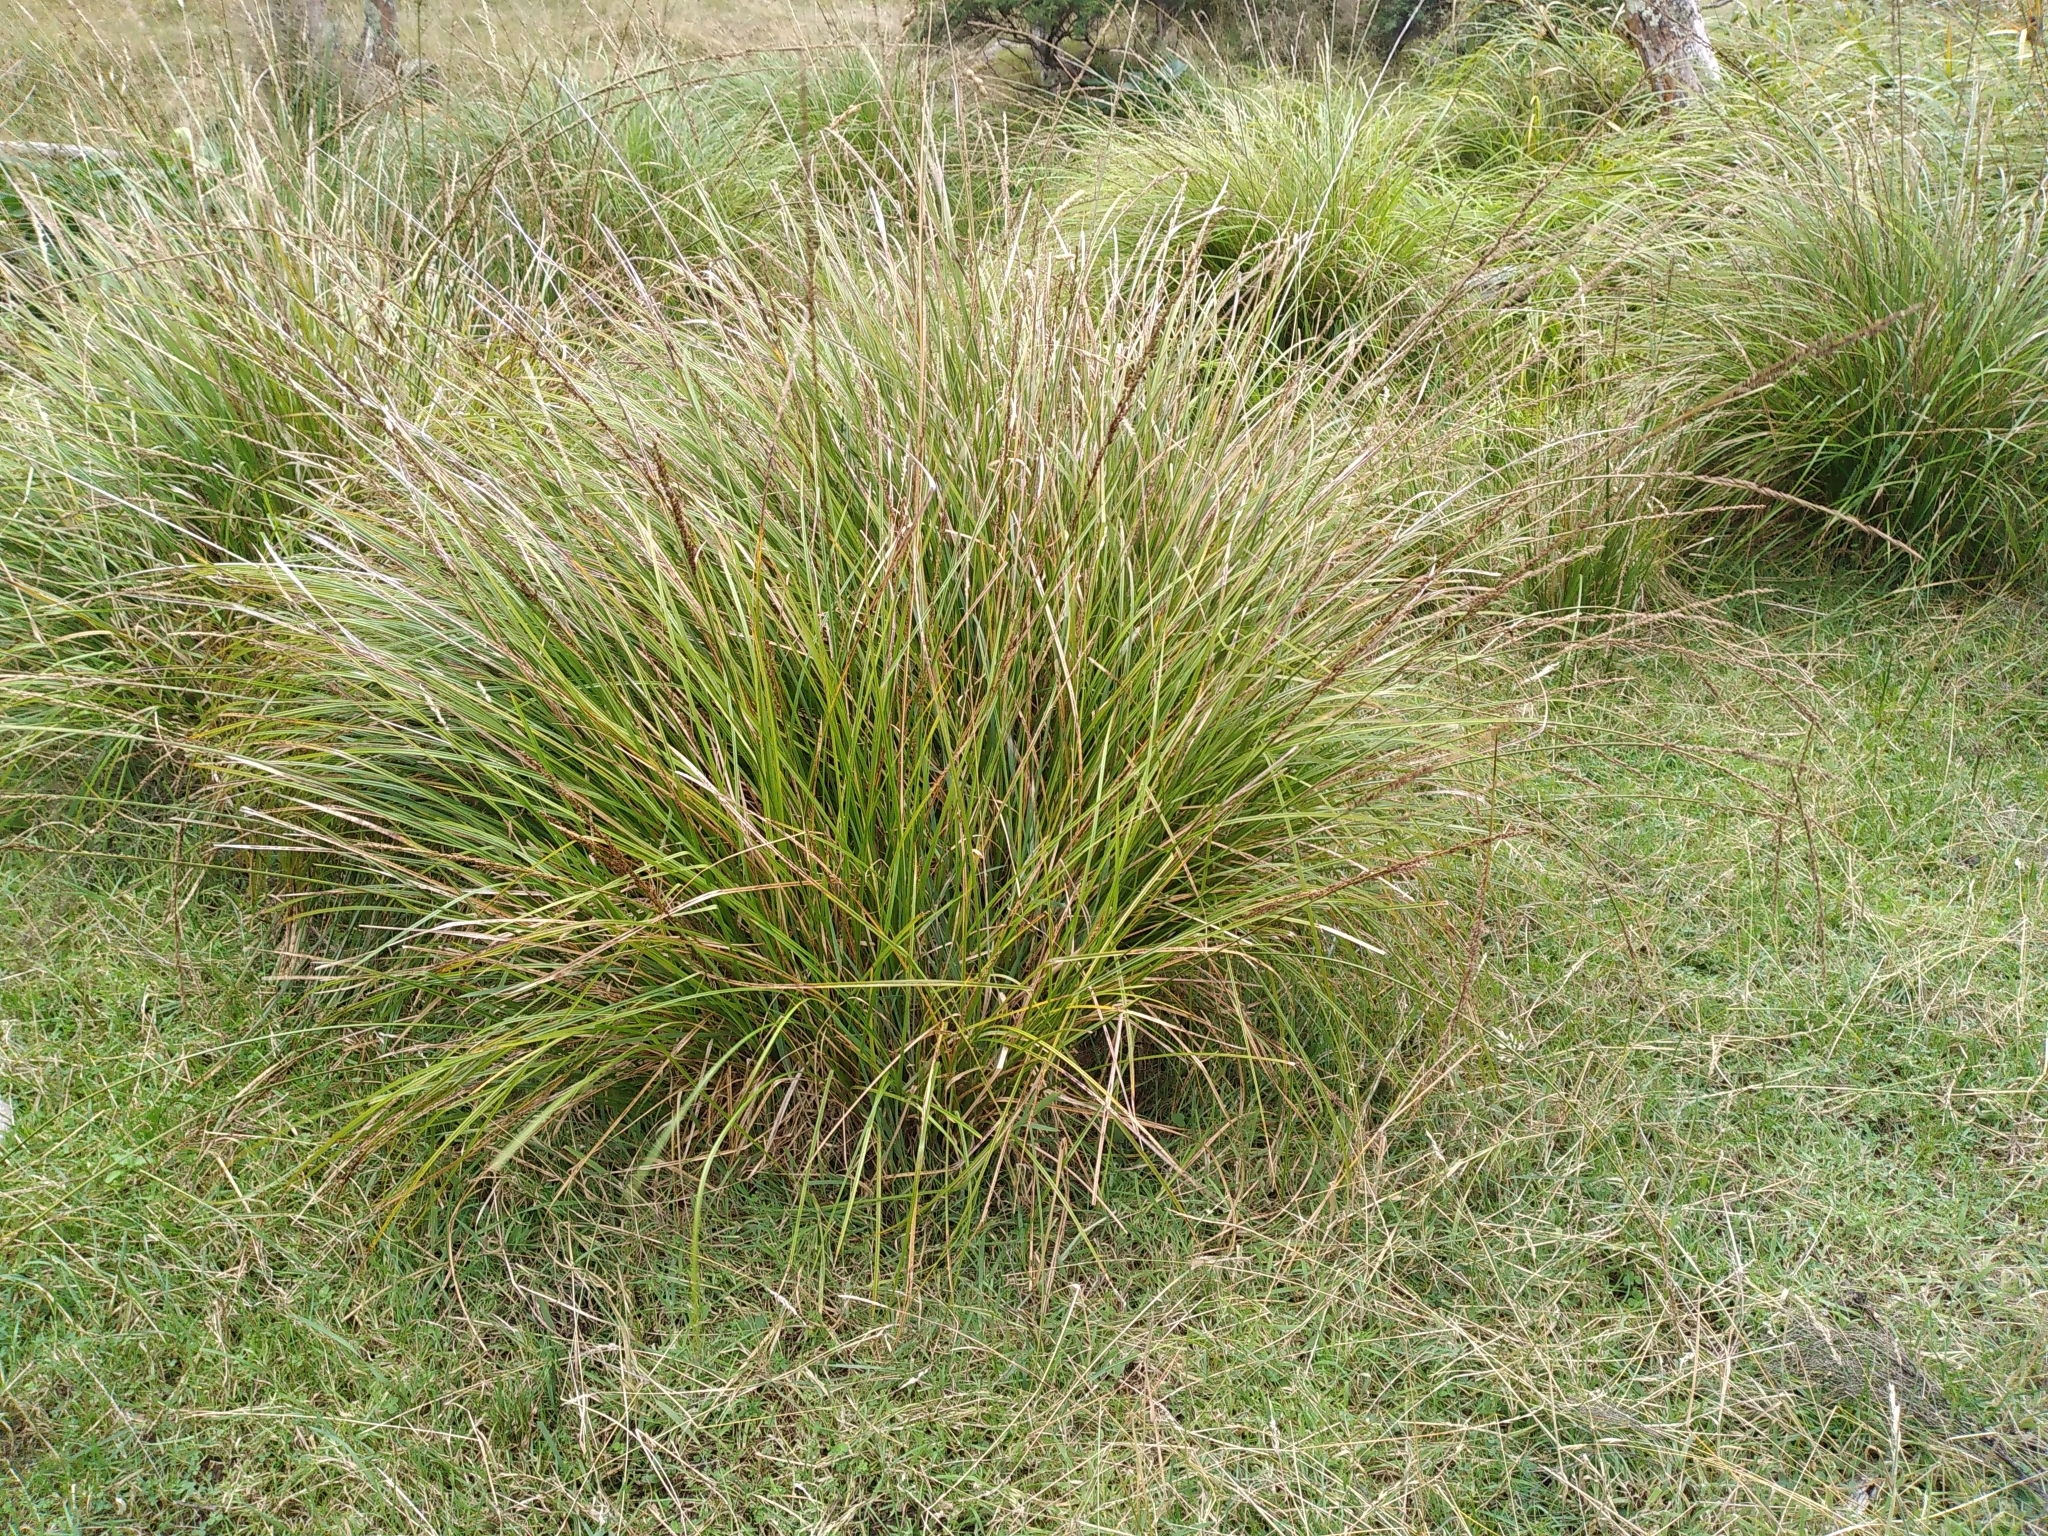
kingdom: Plantae
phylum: Tracheophyta
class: Liliopsida
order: Poales
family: Cyperaceae
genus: Carex
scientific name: Carex virgata
